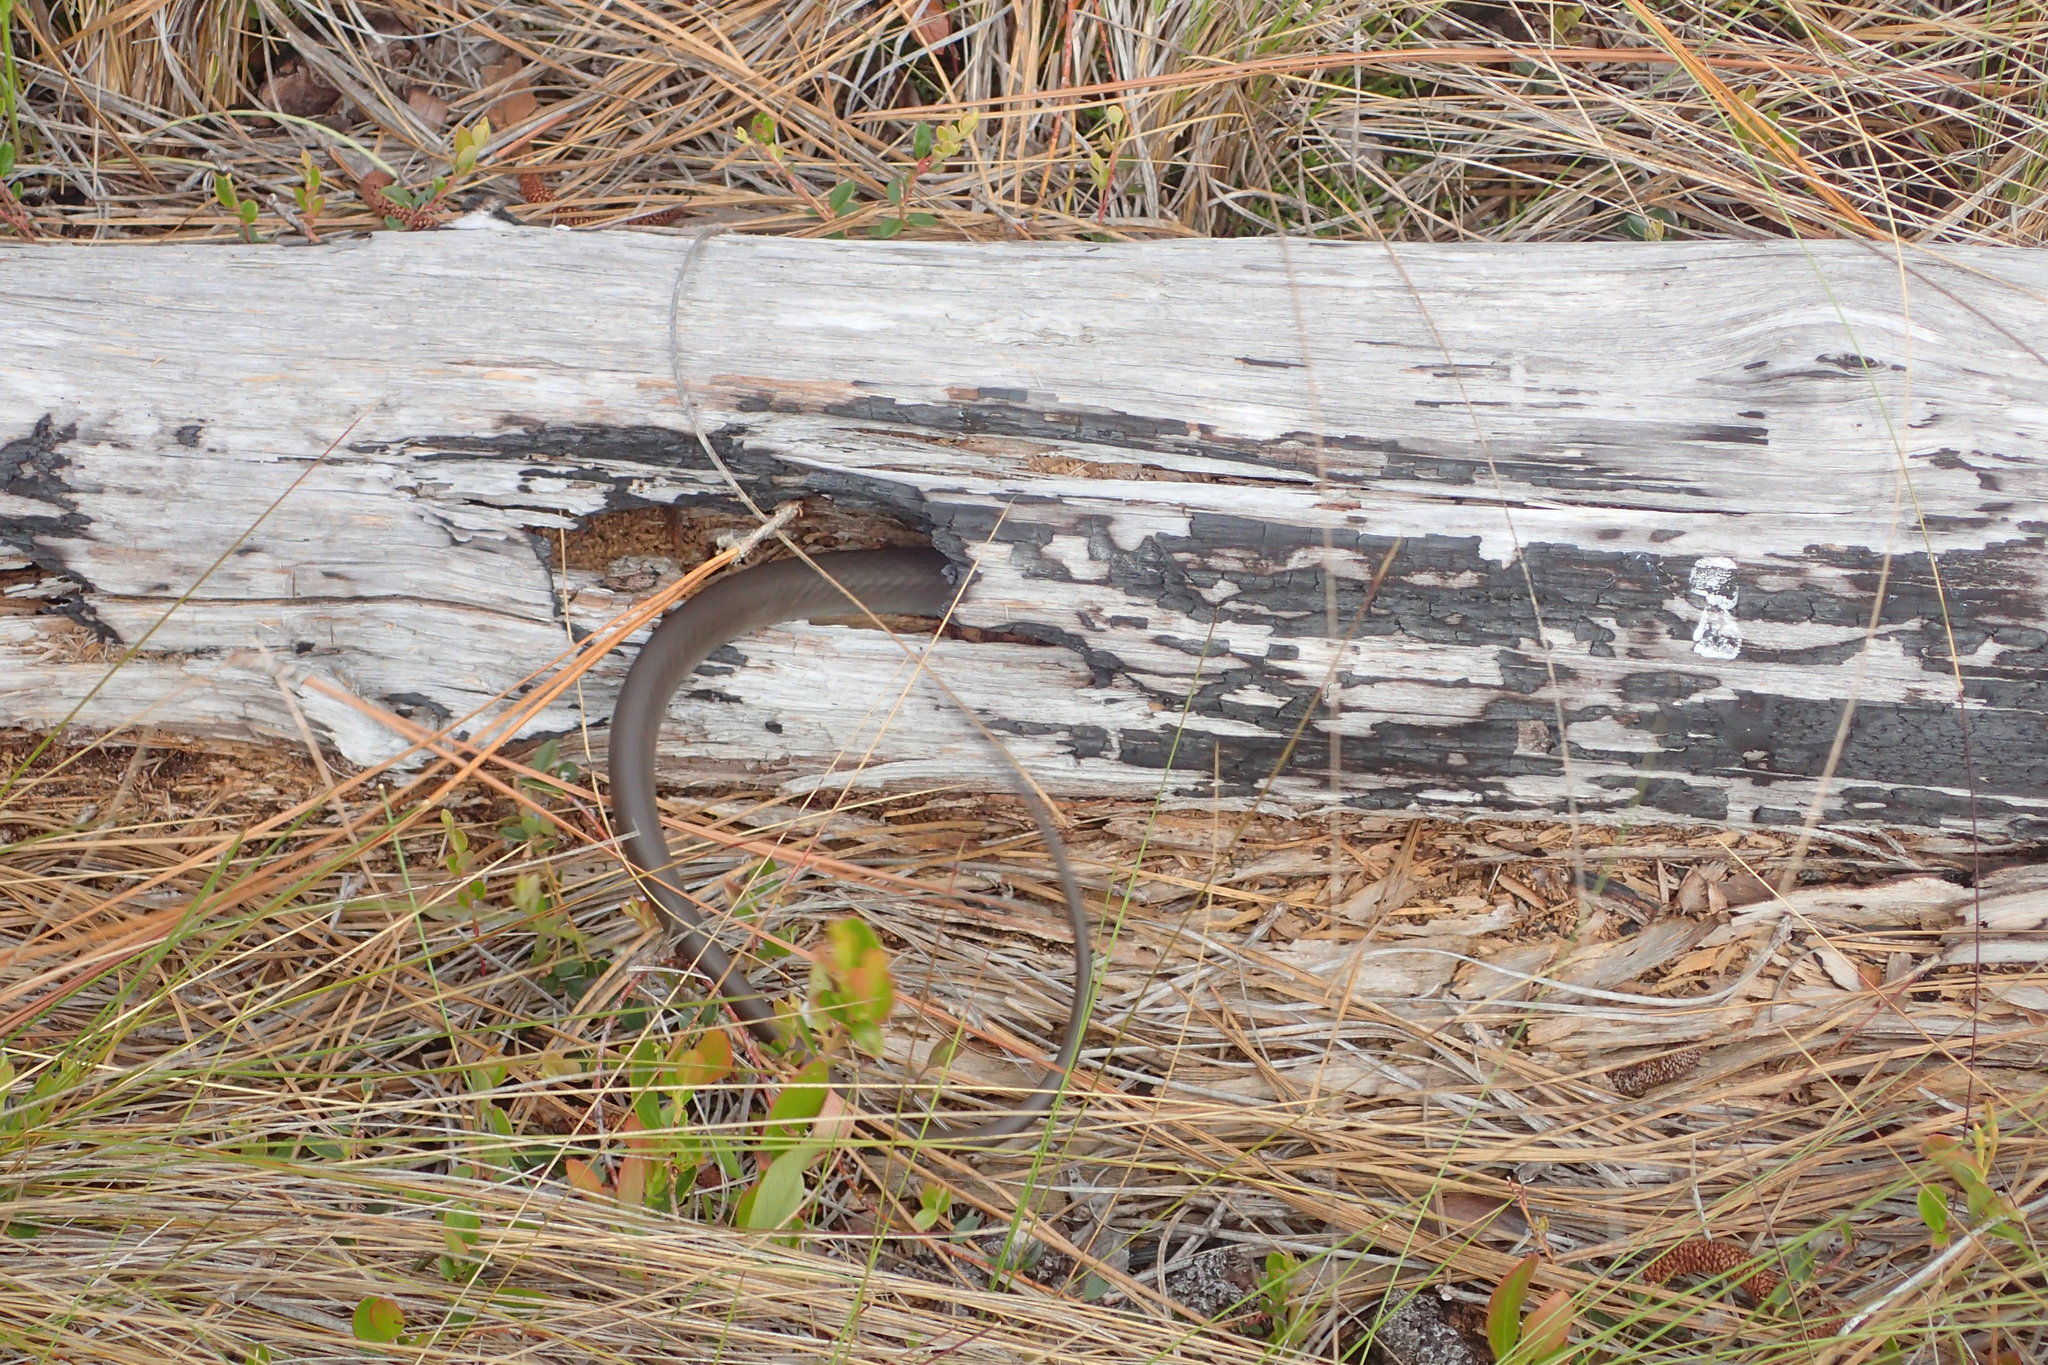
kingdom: Animalia
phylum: Chordata
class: Squamata
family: Colubridae
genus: Coluber
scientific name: Coluber constrictor
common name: Eastern racer
